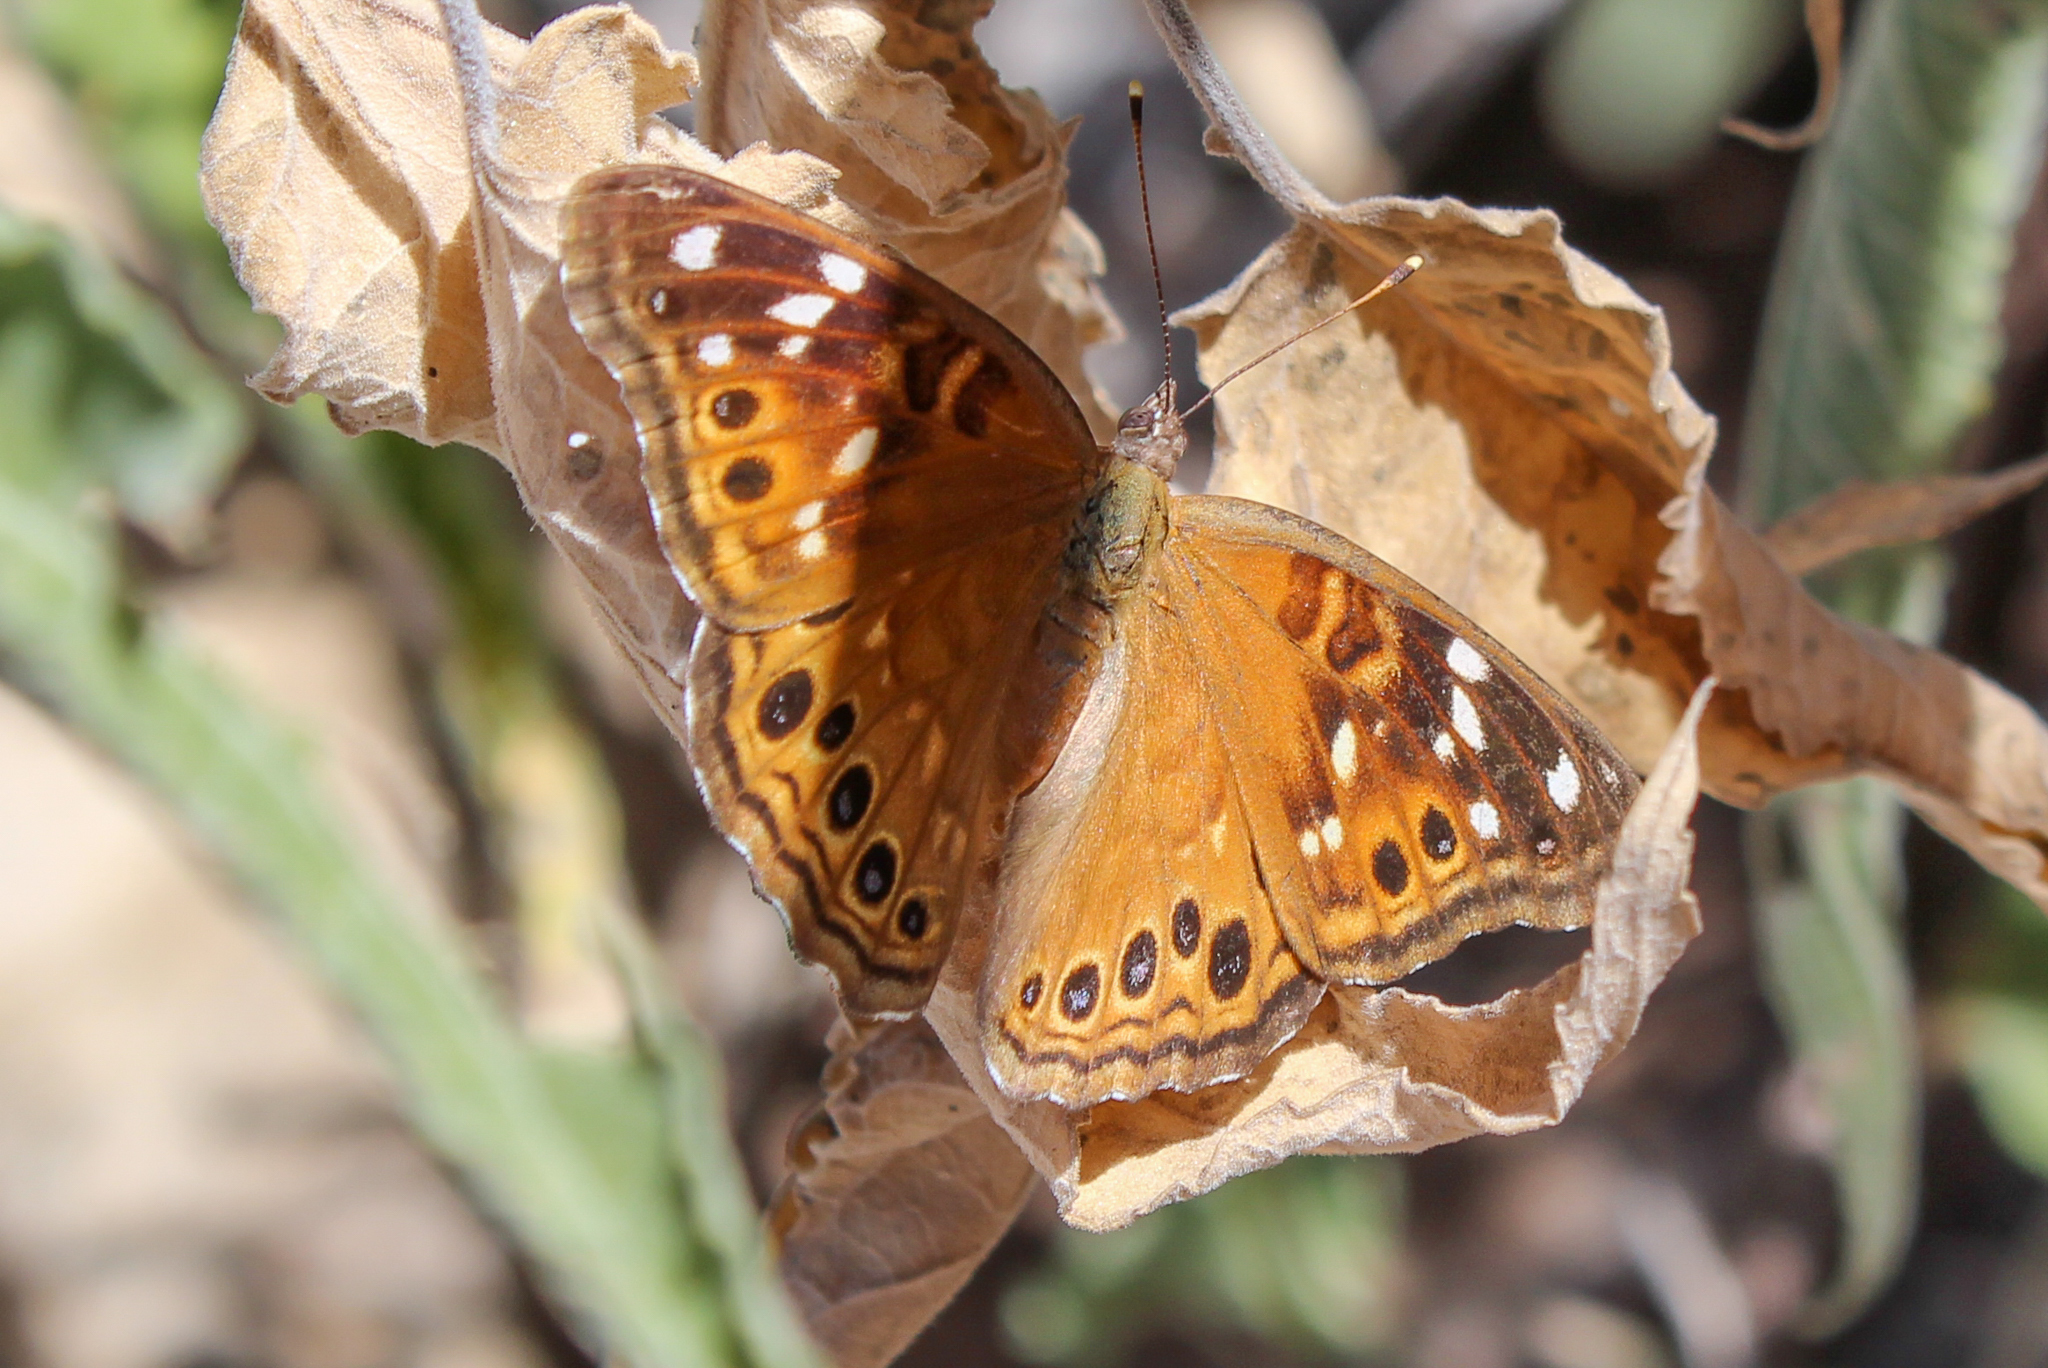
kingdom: Animalia
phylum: Arthropoda
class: Insecta
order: Lepidoptera
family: Nymphalidae
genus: Asterocampa
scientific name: Asterocampa leilia
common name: Empress leilia
